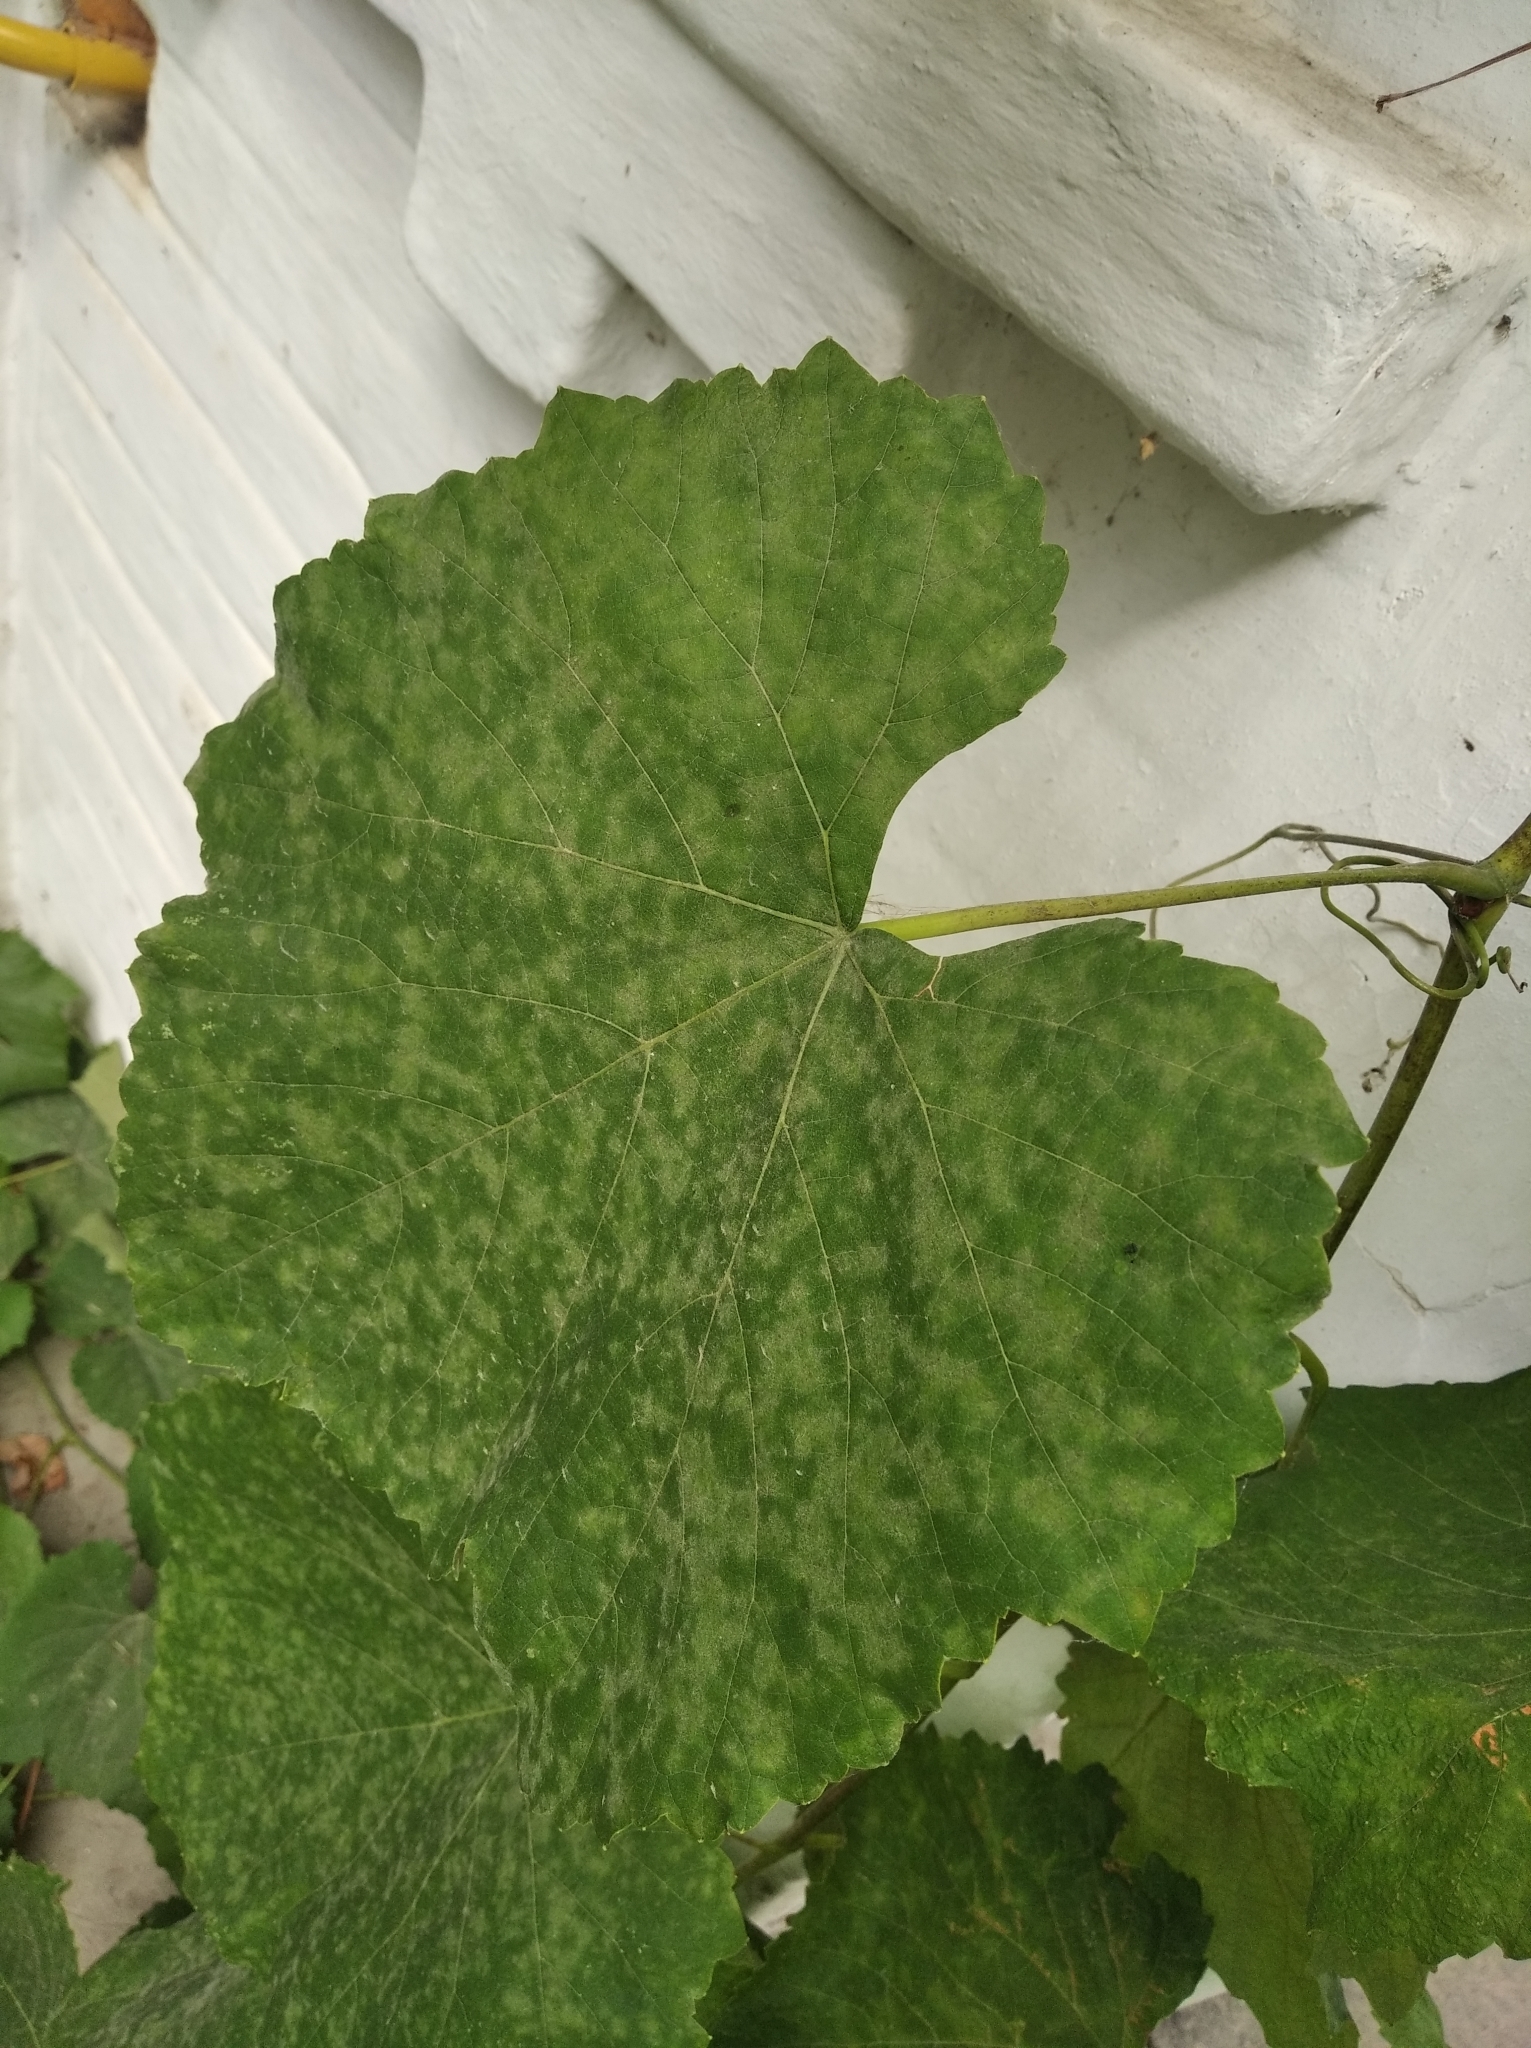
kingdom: Fungi
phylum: Ascomycota
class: Leotiomycetes
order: Helotiales
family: Erysiphaceae
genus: Erysiphe
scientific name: Erysiphe necator
